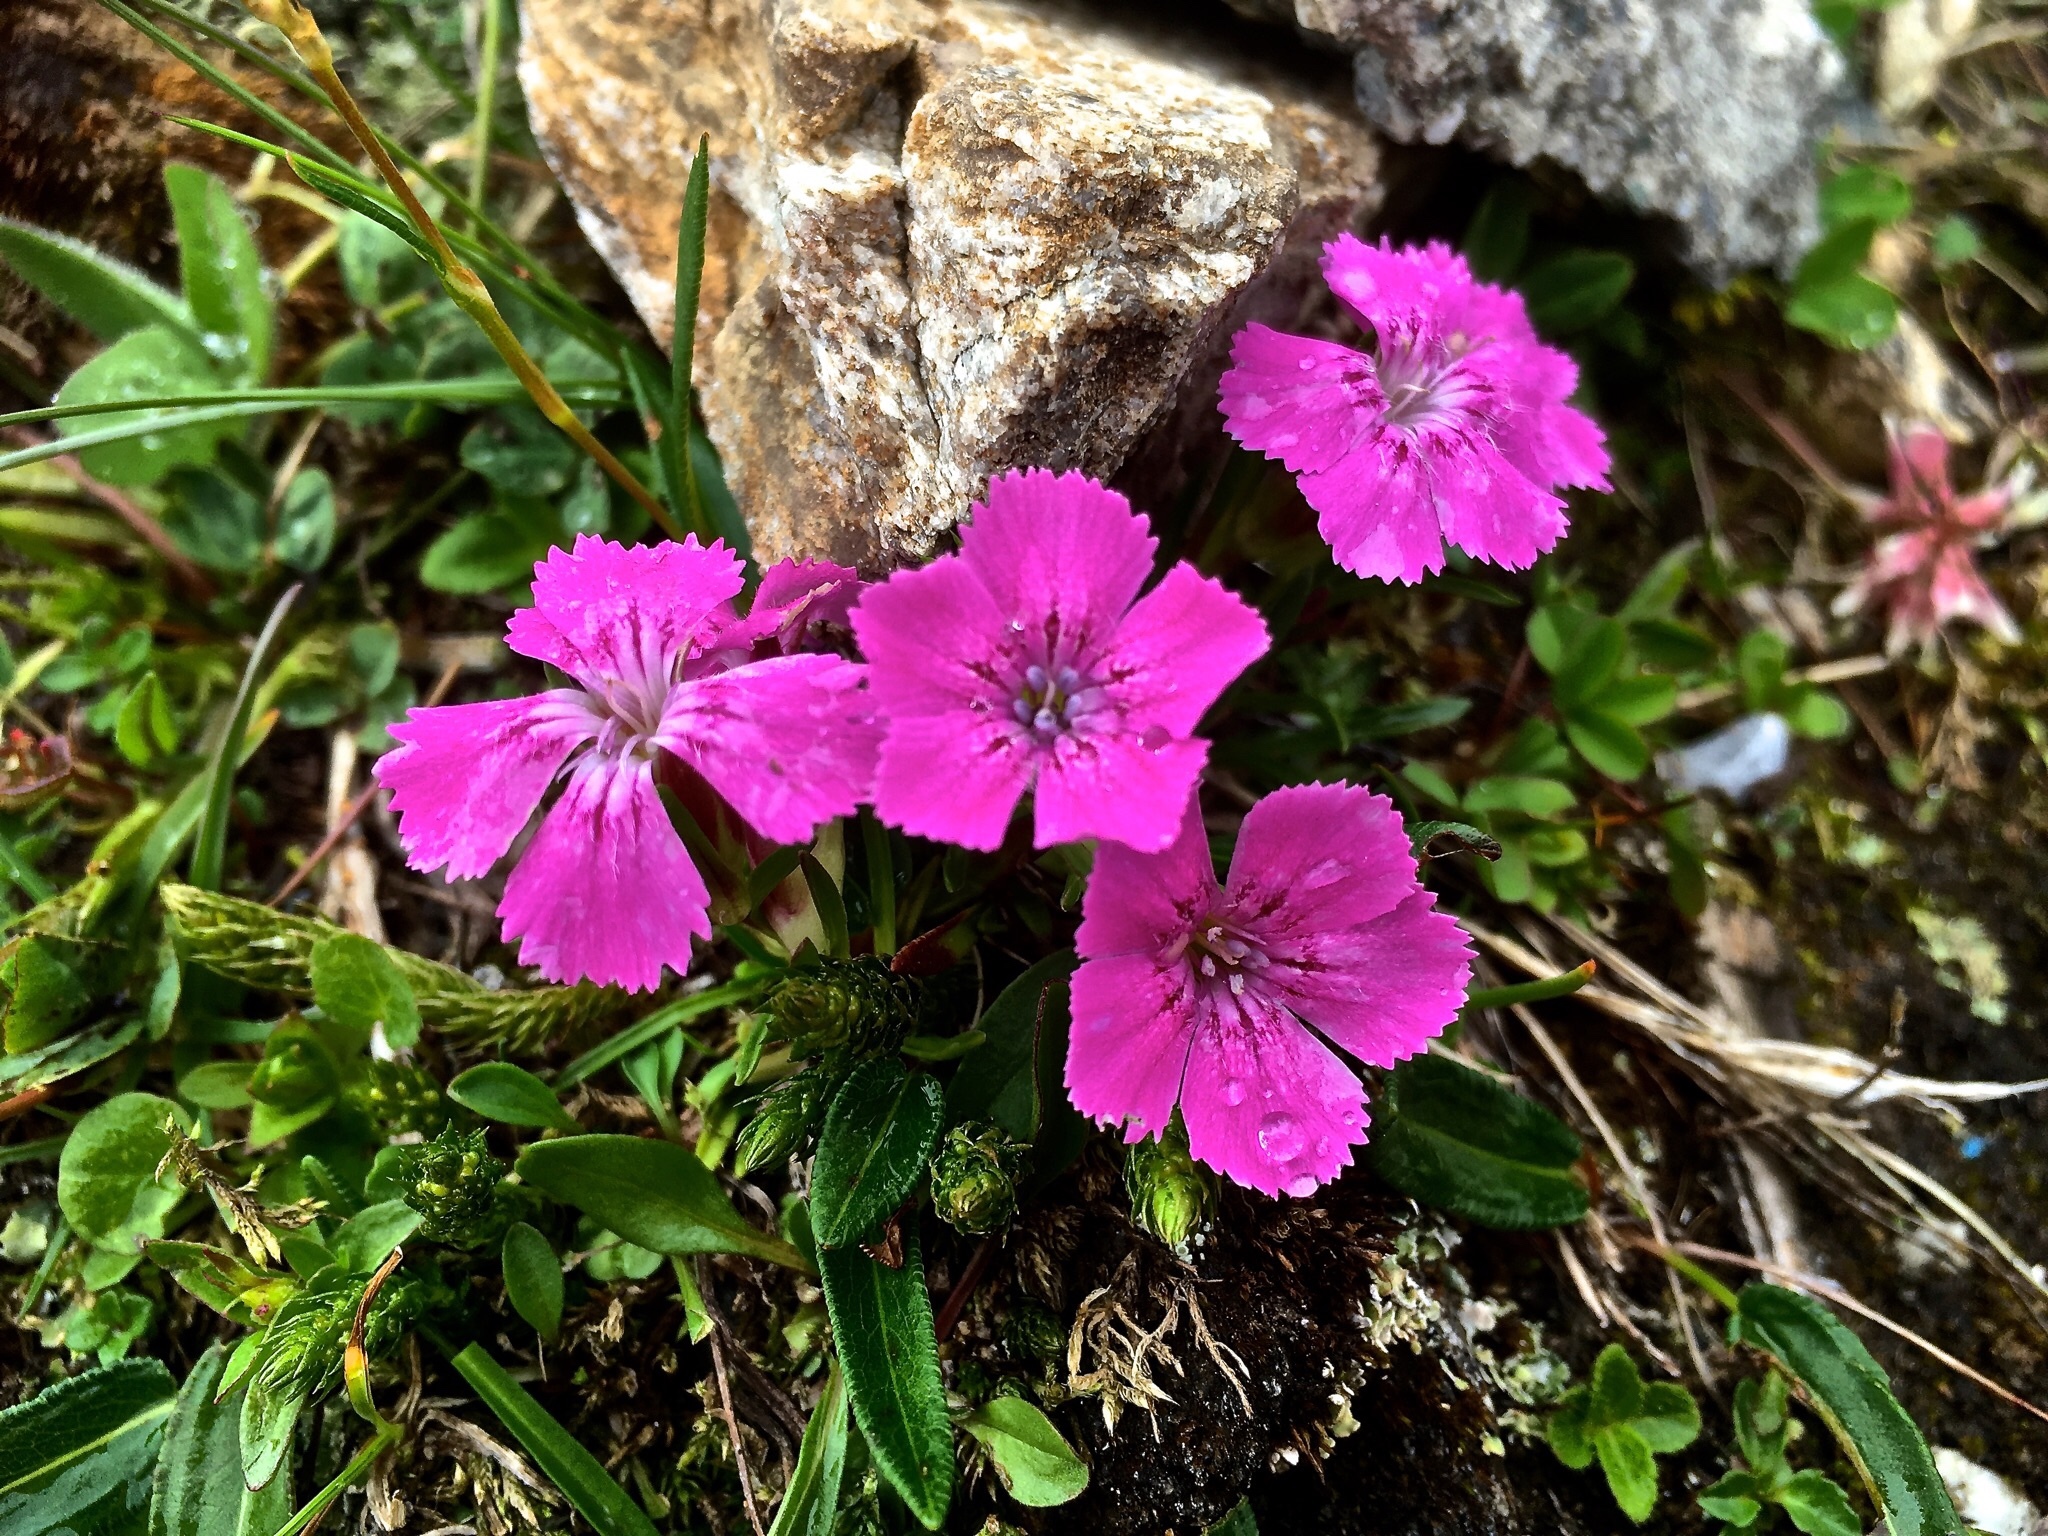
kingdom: Plantae
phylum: Tracheophyta
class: Magnoliopsida
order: Caryophyllales
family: Caryophyllaceae
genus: Dianthus
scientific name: Dianthus glacialis
